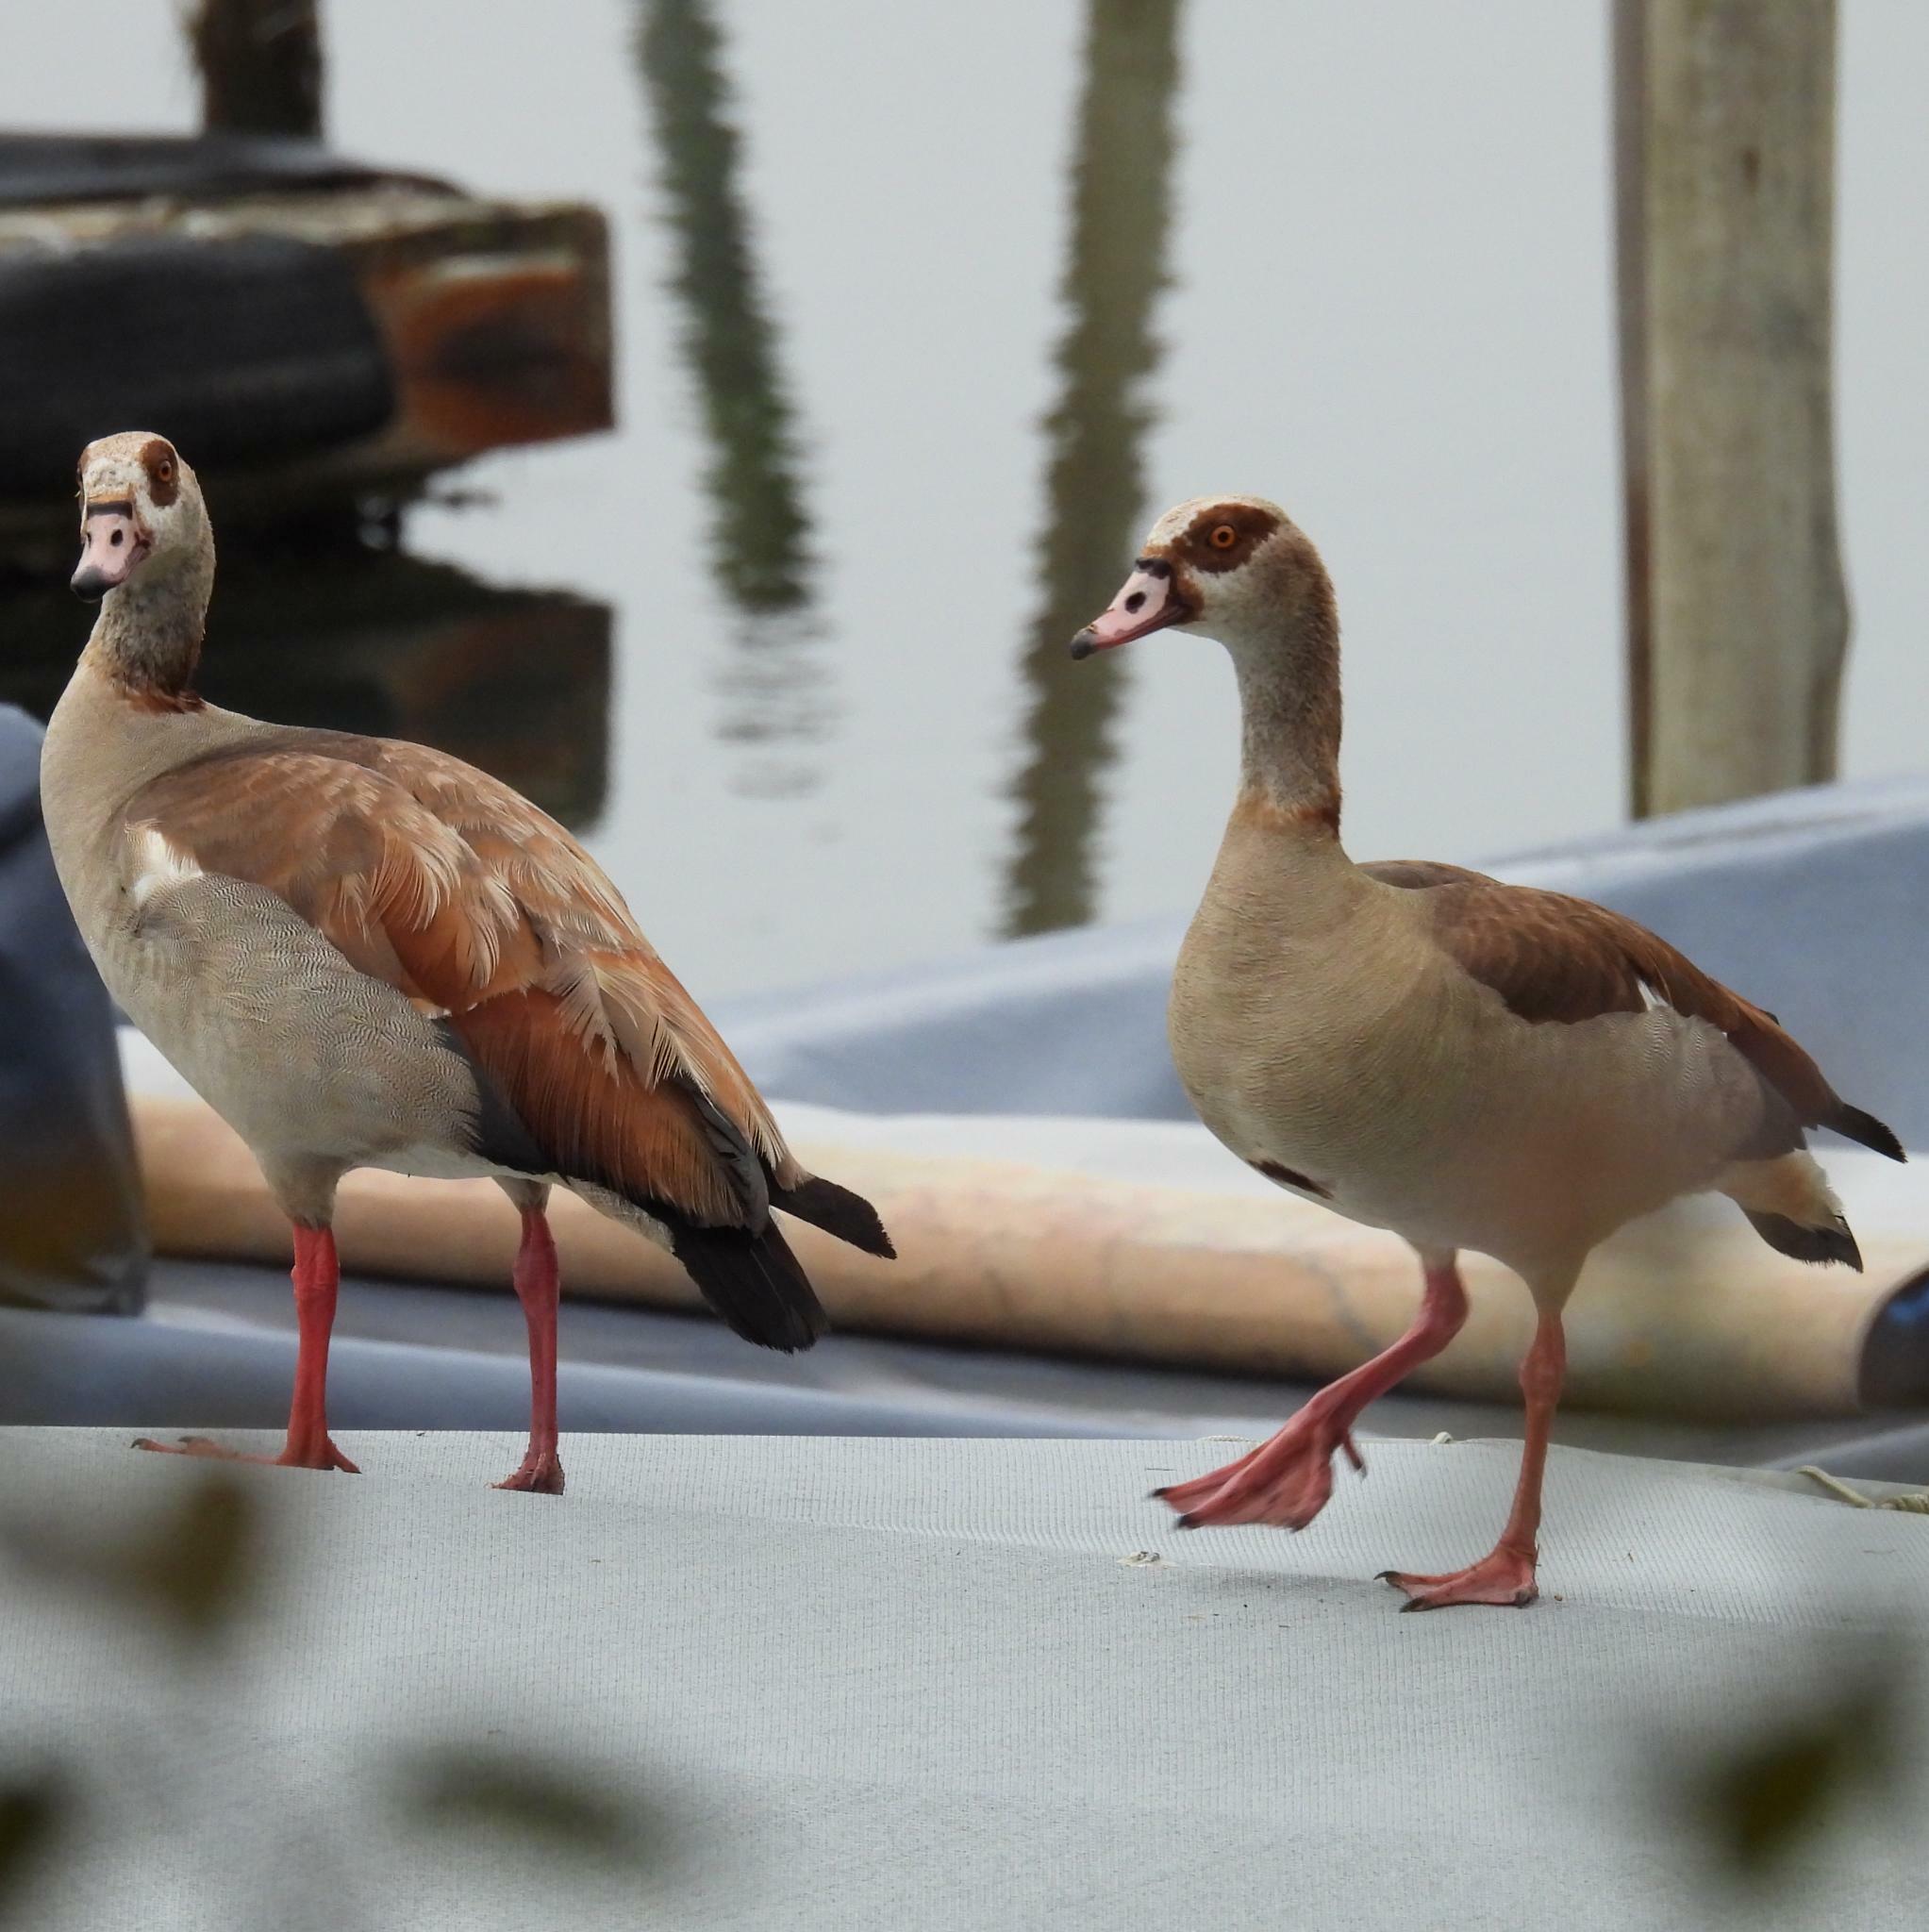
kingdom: Animalia
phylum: Chordata
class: Aves
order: Anseriformes
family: Anatidae
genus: Alopochen
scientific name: Alopochen aegyptiaca
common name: Egyptian goose
